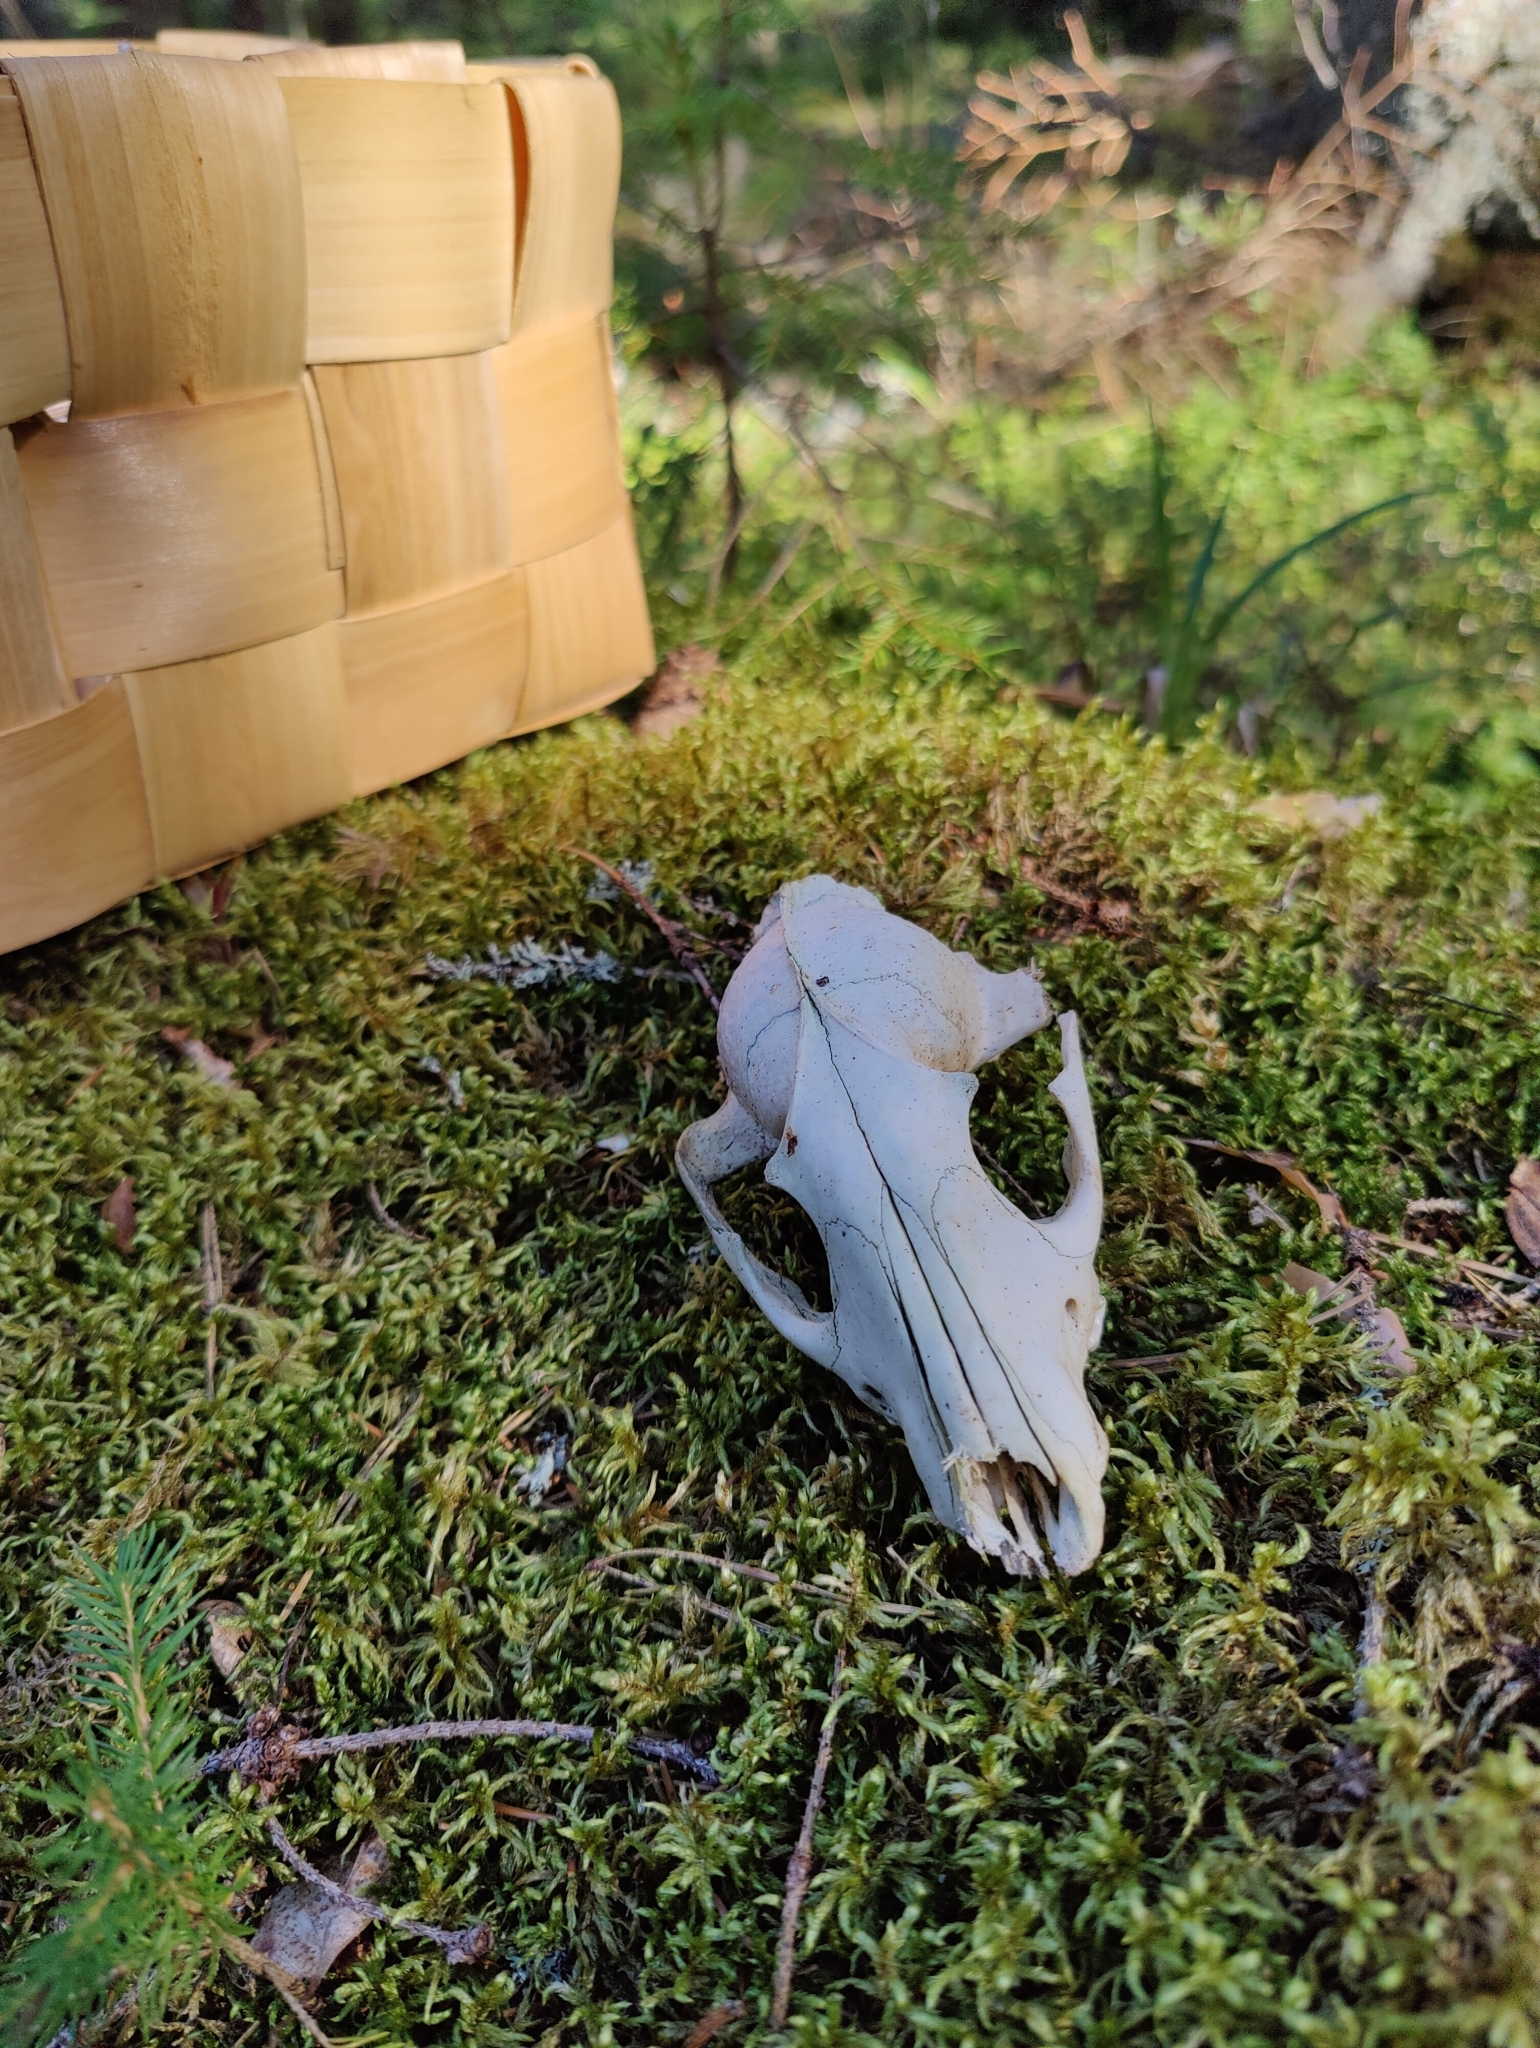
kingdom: Animalia
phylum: Chordata
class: Mammalia
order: Carnivora
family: Canidae
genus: Vulpes
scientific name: Vulpes vulpes
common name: Red fox
